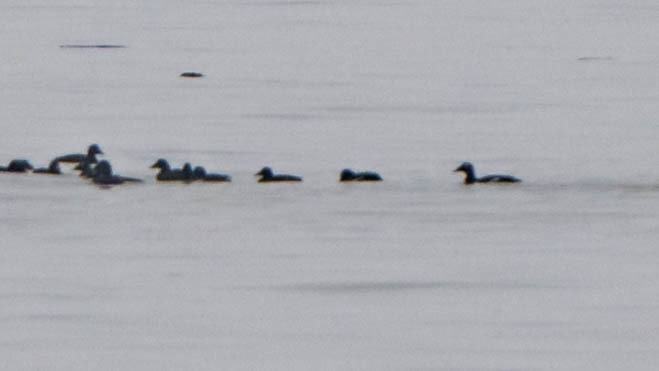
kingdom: Animalia
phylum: Chordata
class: Aves
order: Anseriformes
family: Anatidae
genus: Melanitta
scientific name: Melanitta deglandi
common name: White-winged scoter
